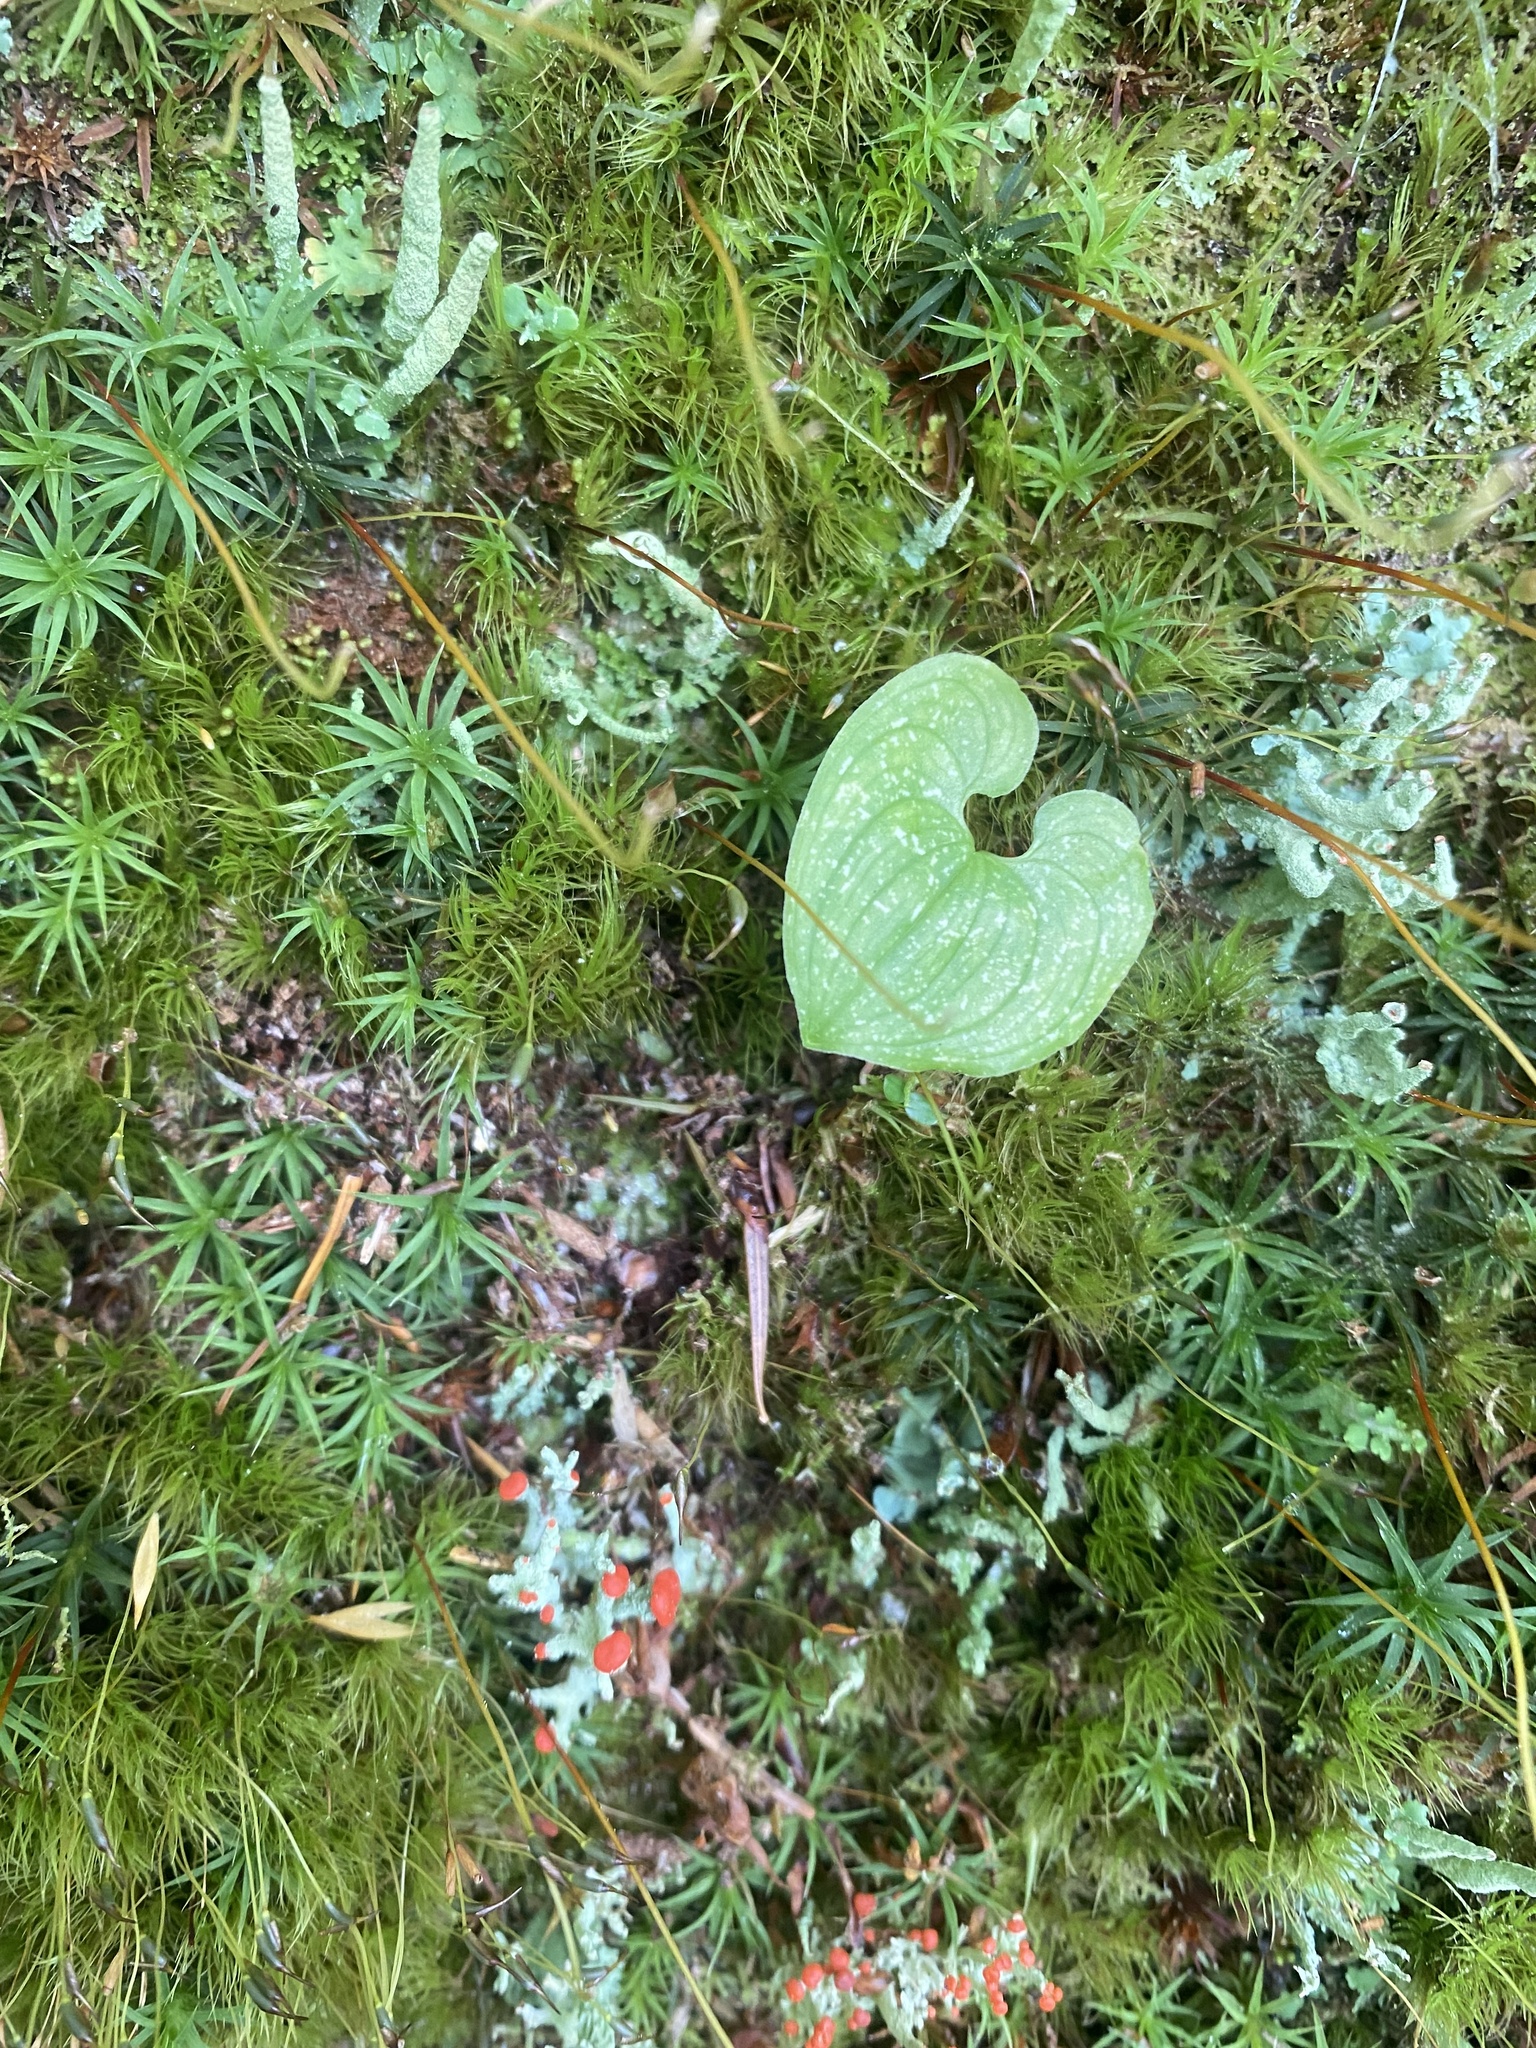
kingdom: Plantae
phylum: Tracheophyta
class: Liliopsida
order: Asparagales
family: Asparagaceae
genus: Maianthemum
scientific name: Maianthemum dilatatum
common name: False lily-of-the-valley
